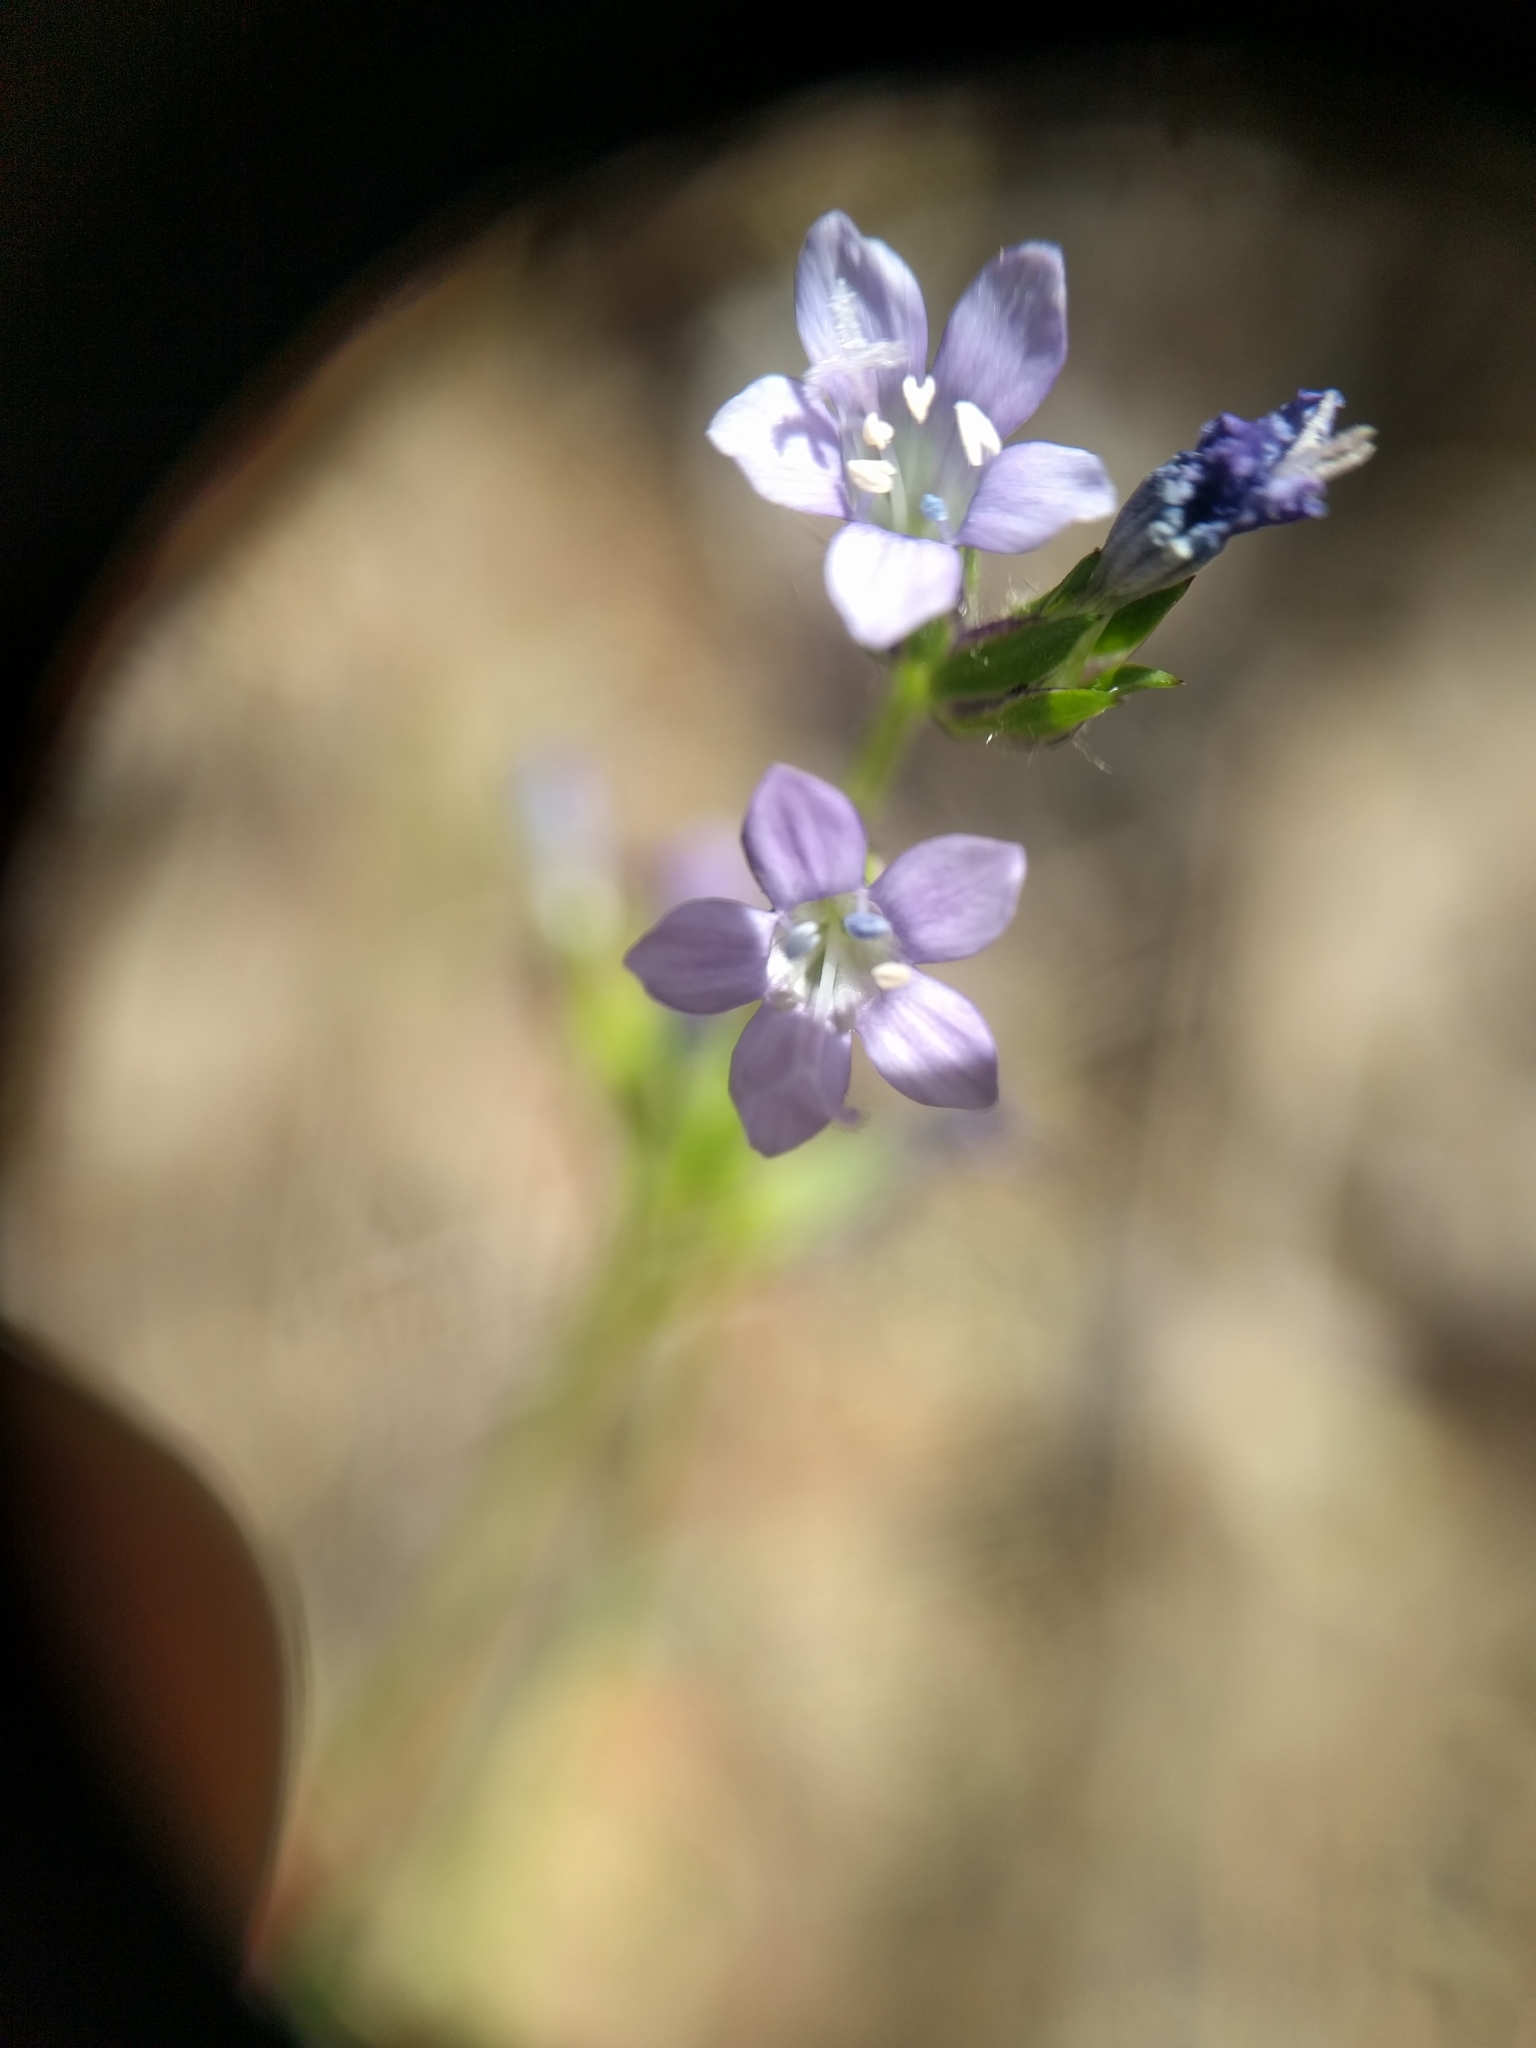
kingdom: Plantae
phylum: Tracheophyta
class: Magnoliopsida
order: Ericales
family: Polemoniaceae
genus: Gilia
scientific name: Gilia achilleifolia
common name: California gily-flower
